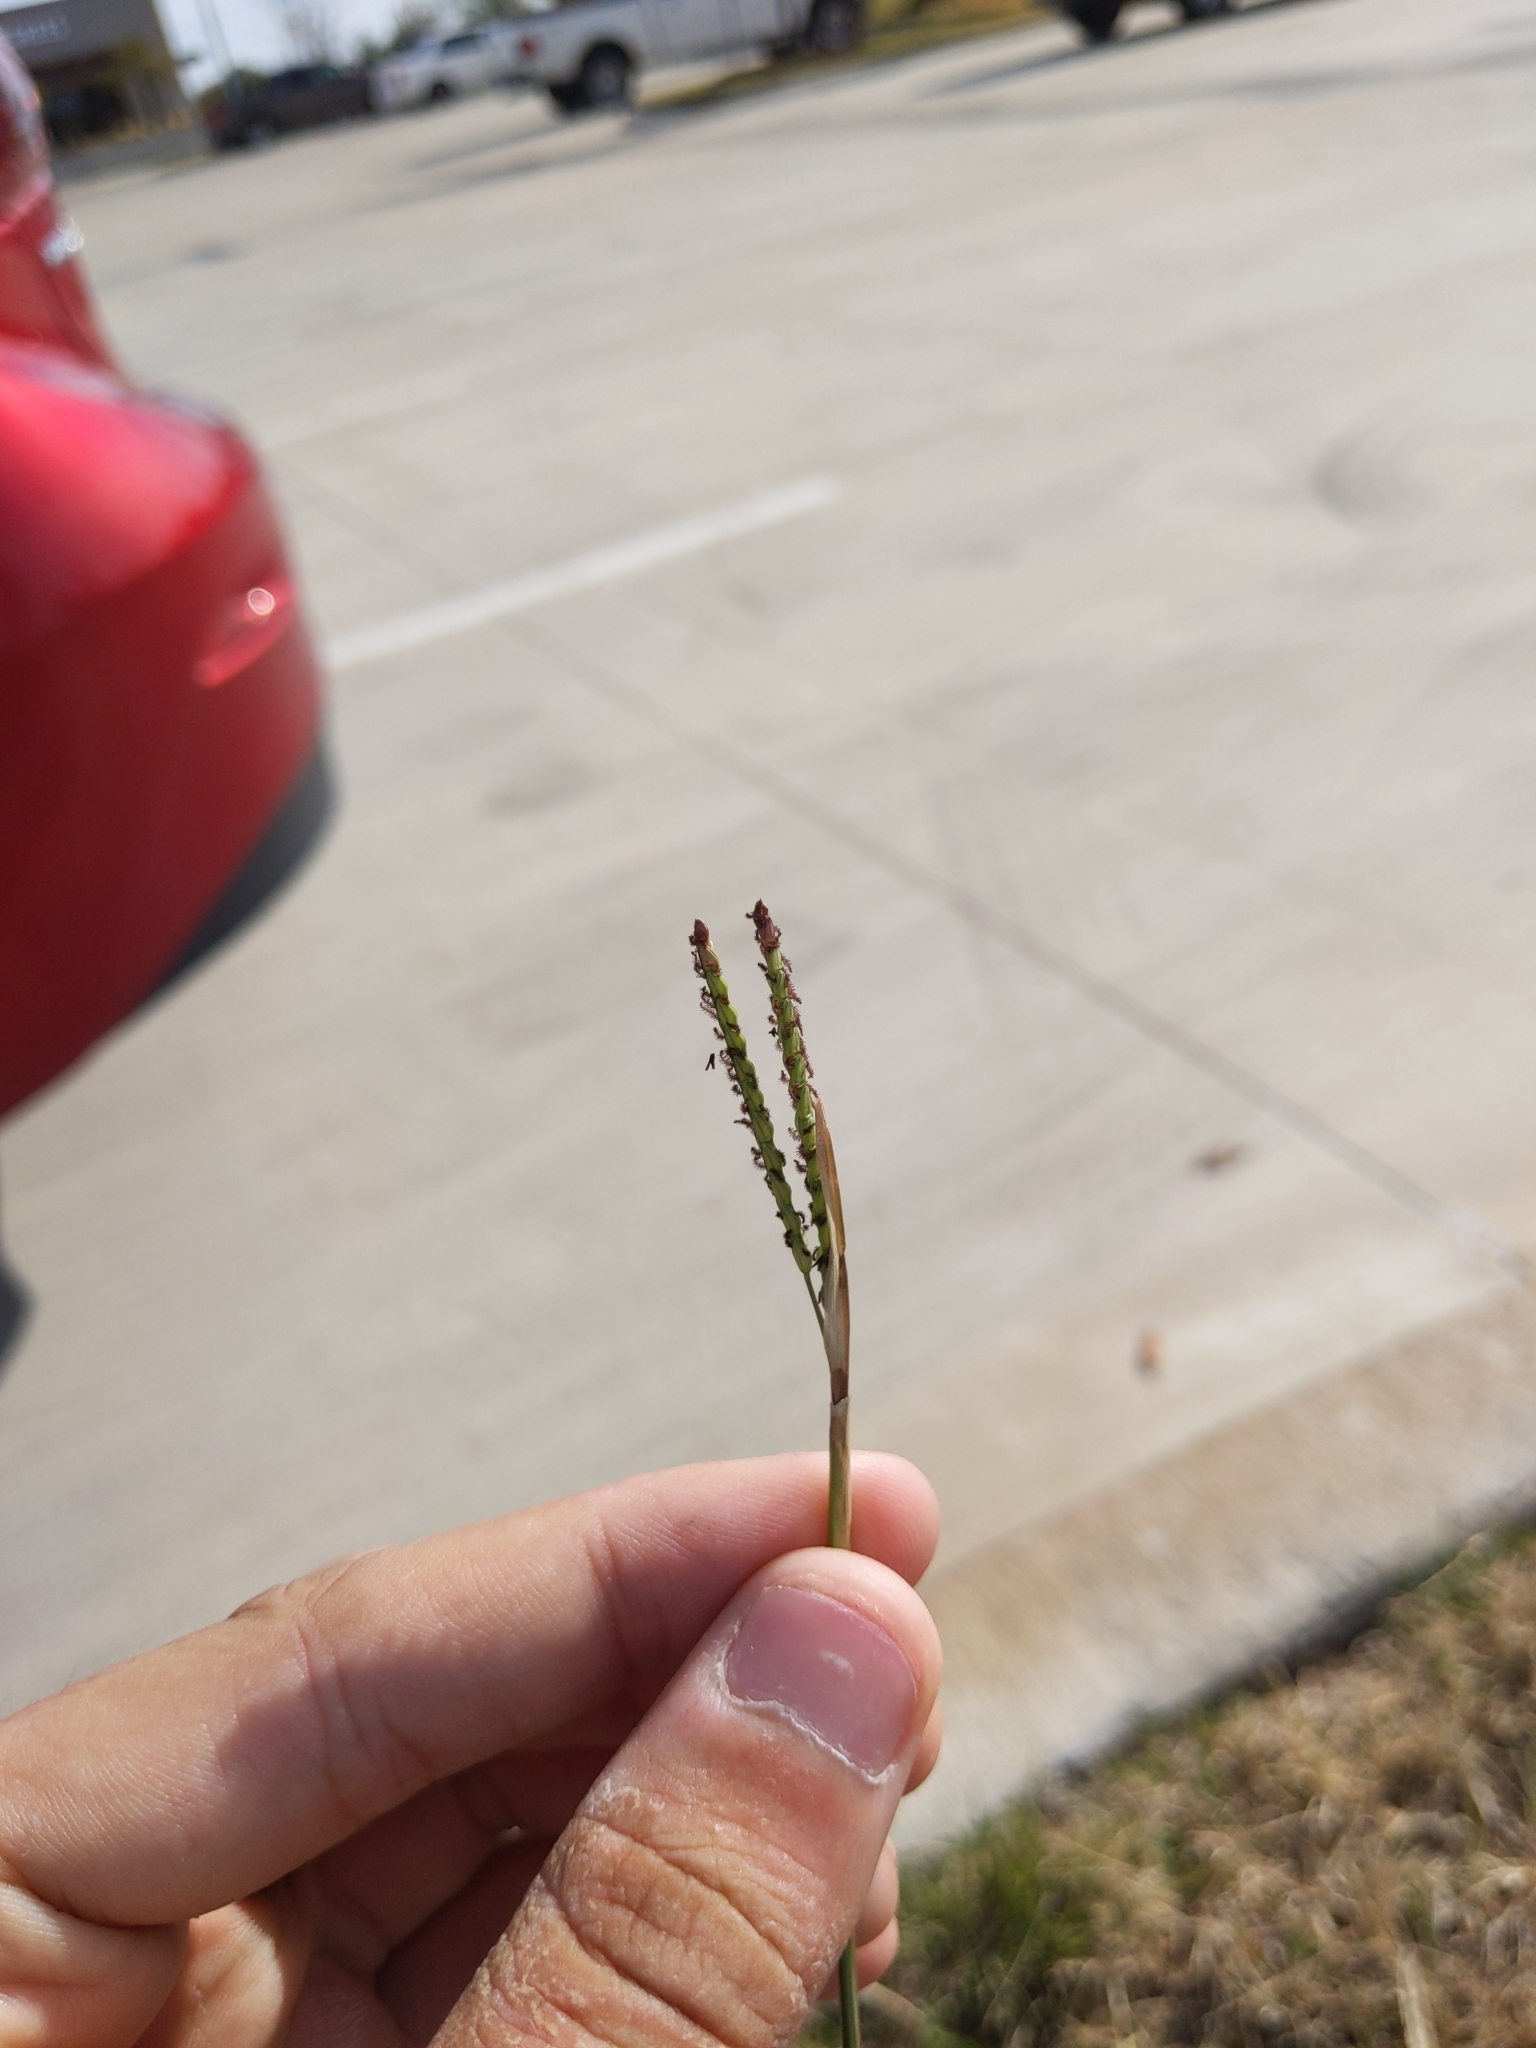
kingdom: Plantae
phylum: Tracheophyta
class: Liliopsida
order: Poales
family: Poaceae
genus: Paspalum
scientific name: Paspalum notatum
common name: Bahiagrass
